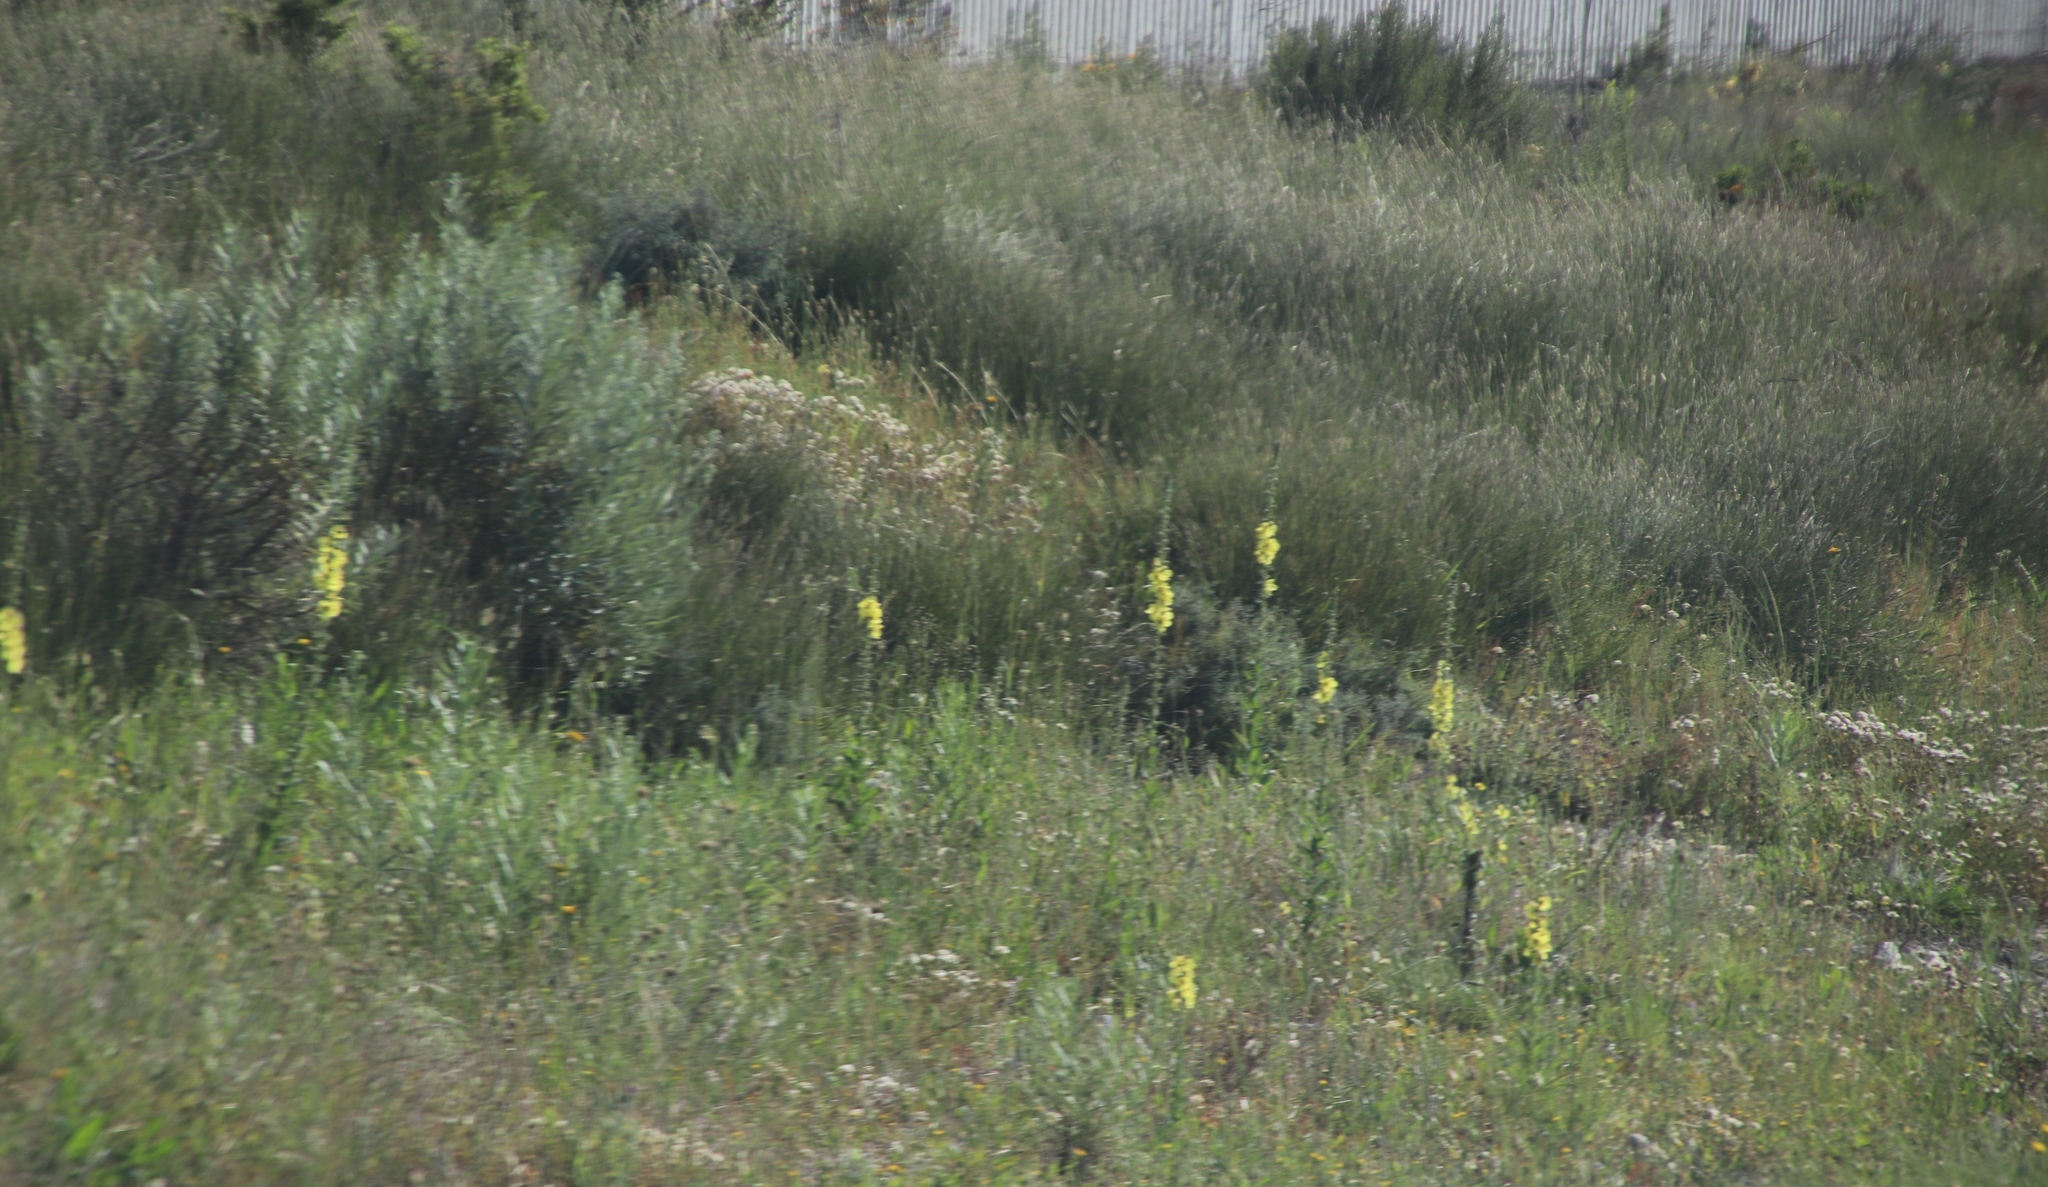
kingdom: Plantae
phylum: Tracheophyta
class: Magnoliopsida
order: Lamiales
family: Scrophulariaceae
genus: Verbascum
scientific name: Verbascum virgatum
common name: Twiggy mullein
